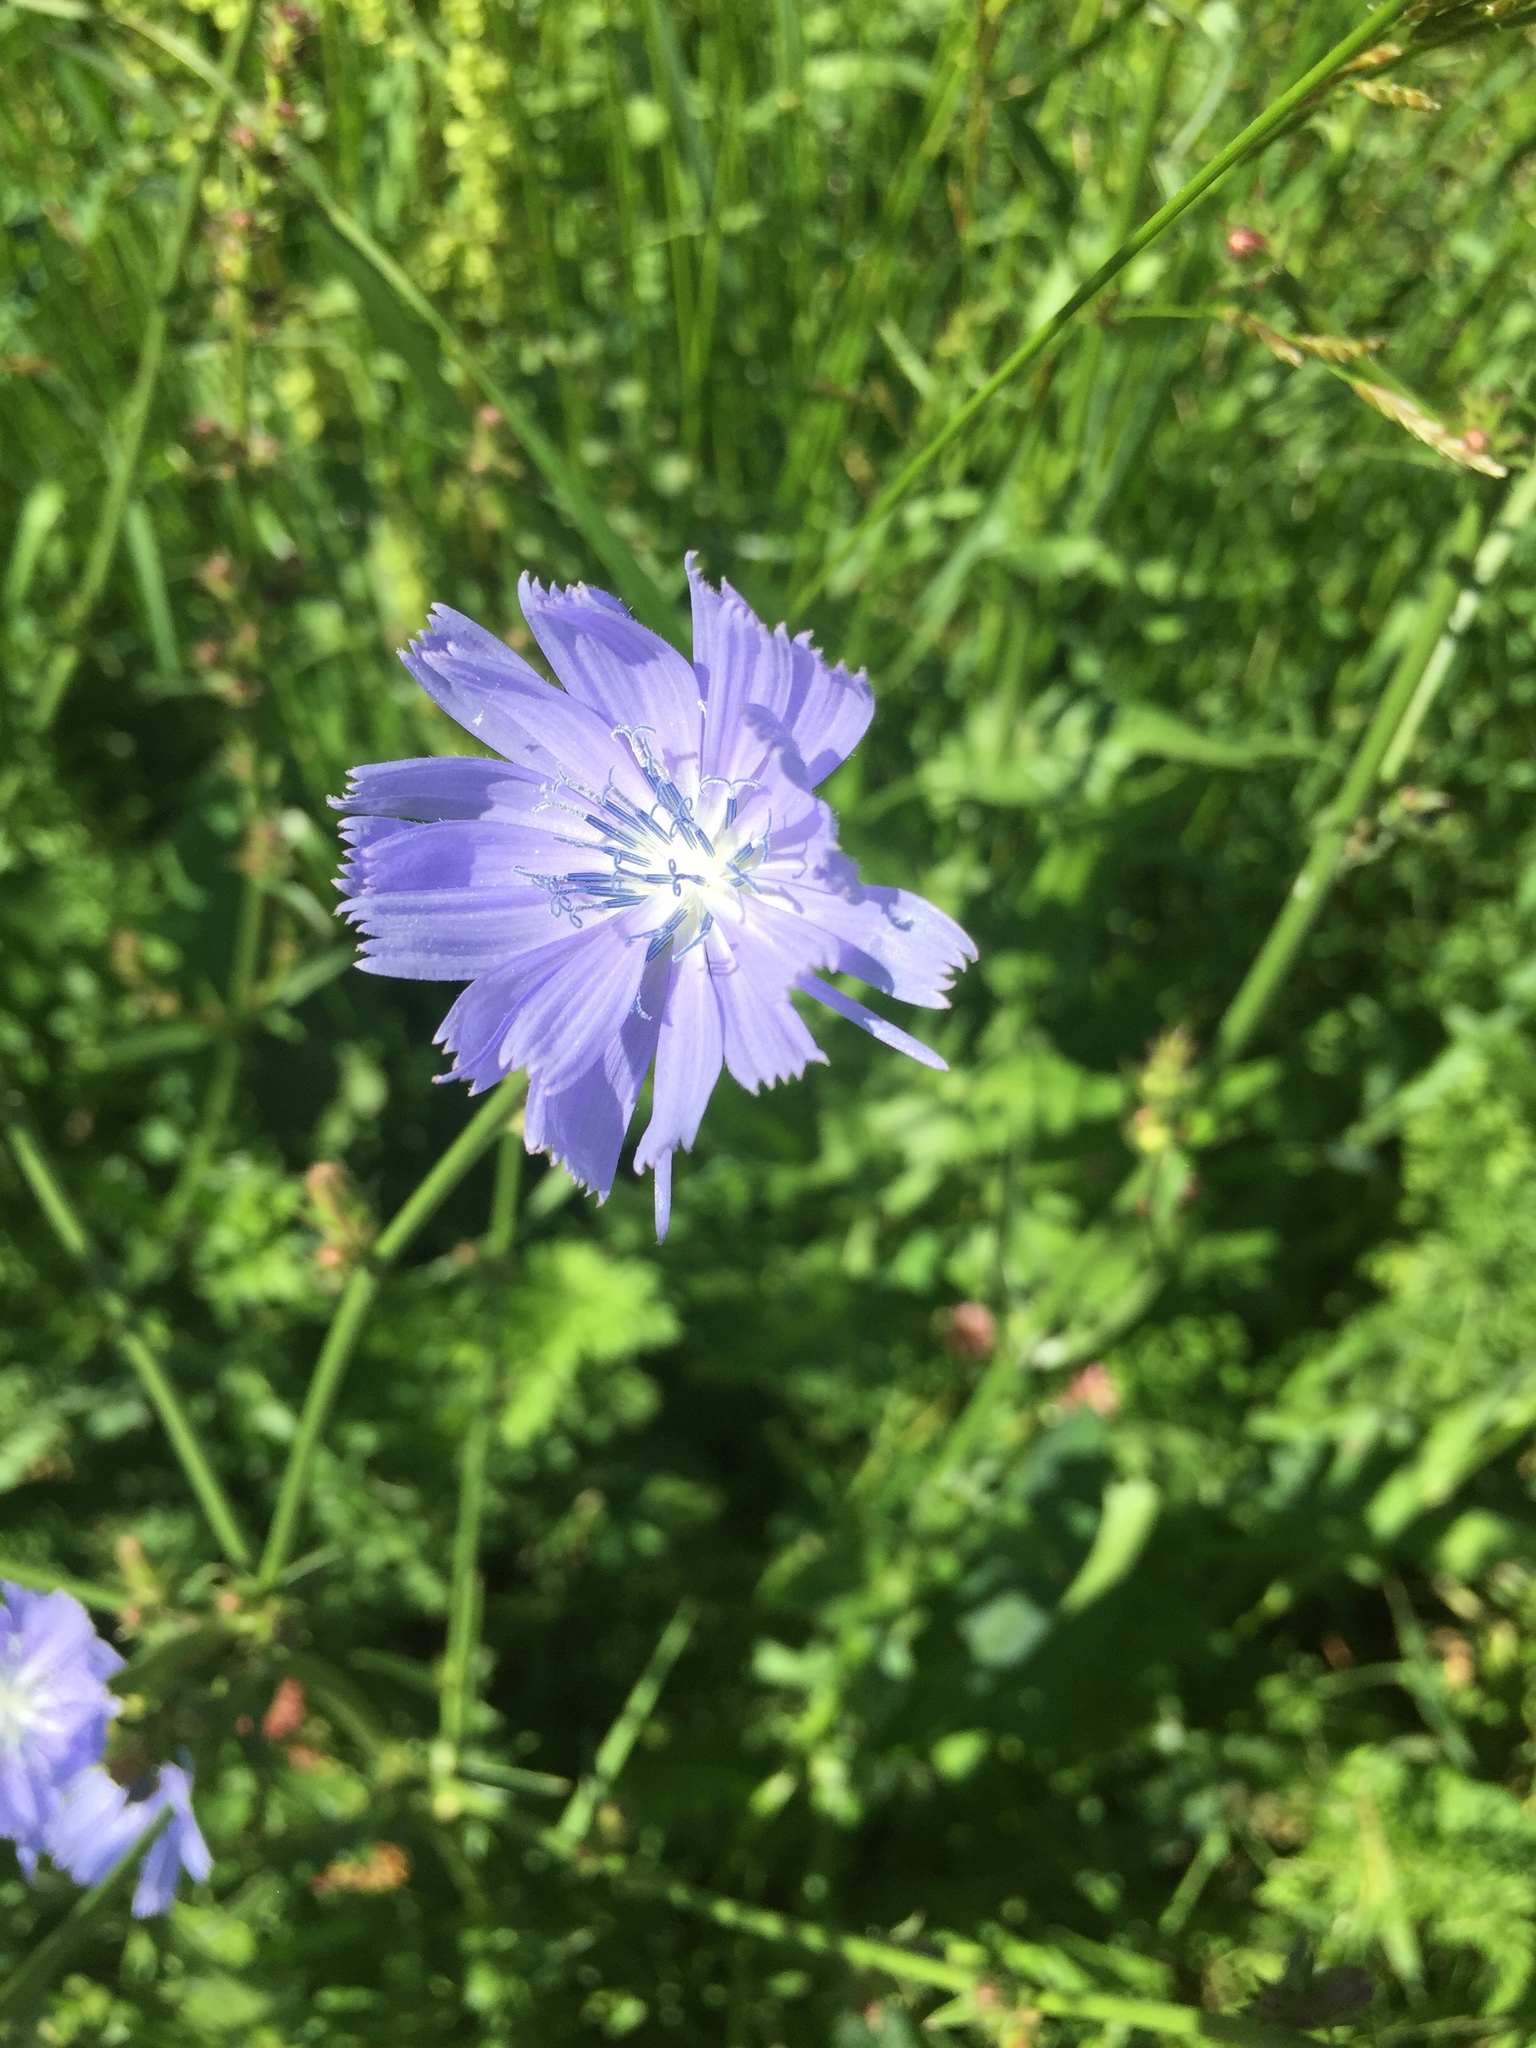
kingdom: Plantae
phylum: Tracheophyta
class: Magnoliopsida
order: Asterales
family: Asteraceae
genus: Cichorium
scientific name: Cichorium intybus
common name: Chicory
